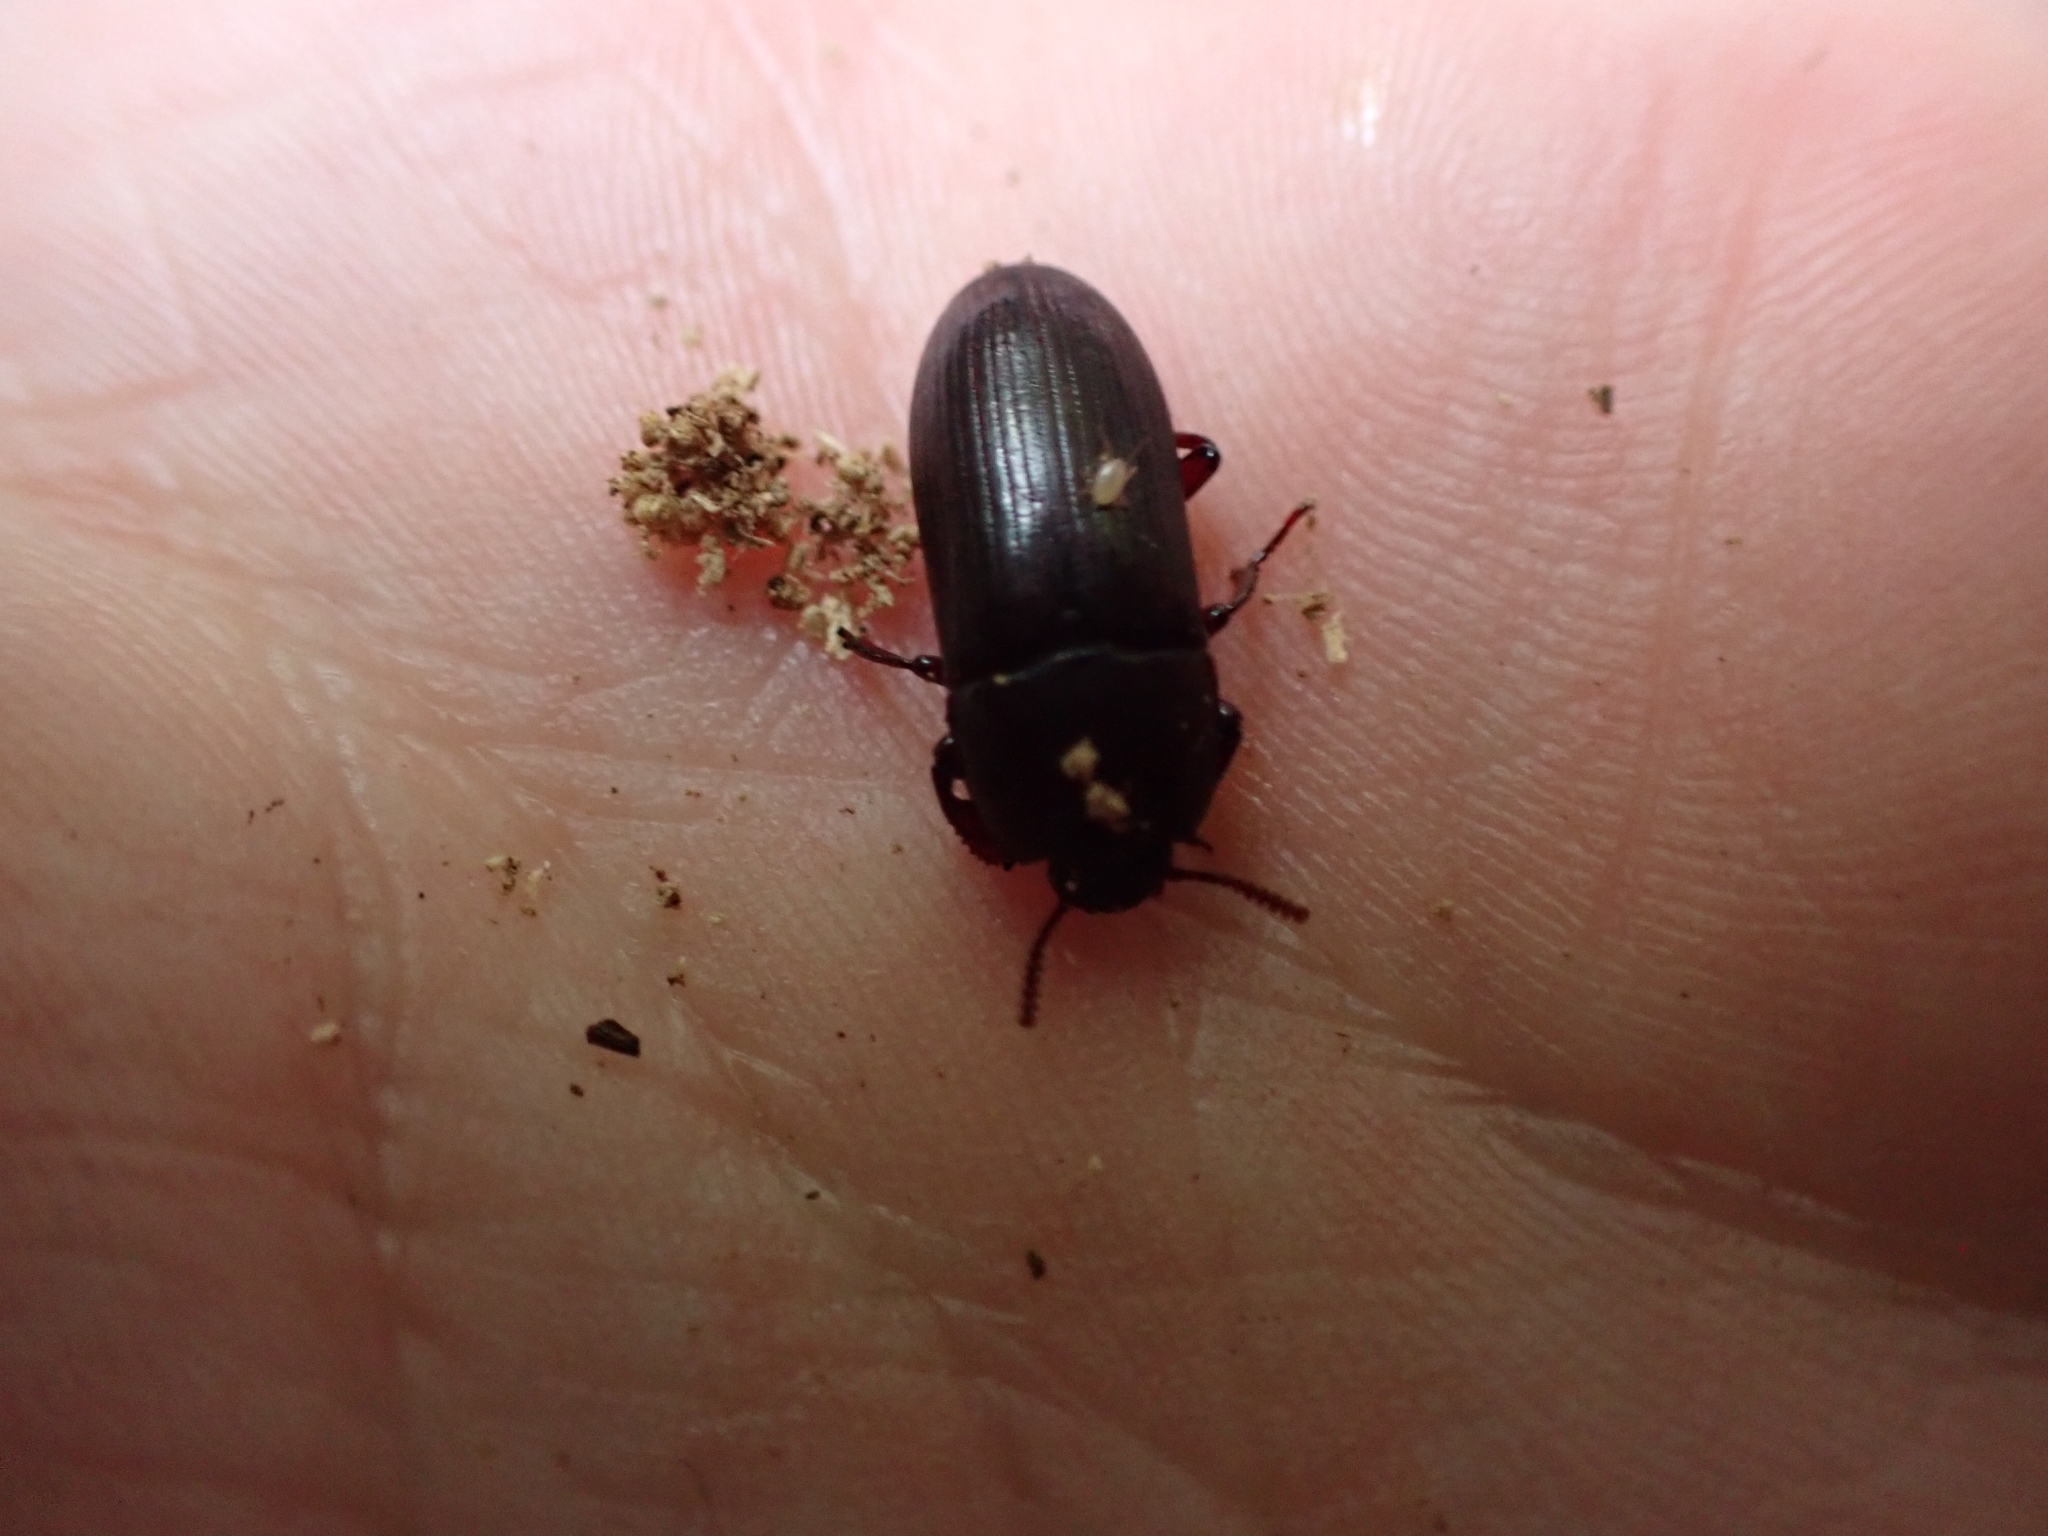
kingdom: Animalia
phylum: Arthropoda
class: Insecta
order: Coleoptera
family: Tenebrionidae
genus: Uloma
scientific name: Uloma tenebrionoides
